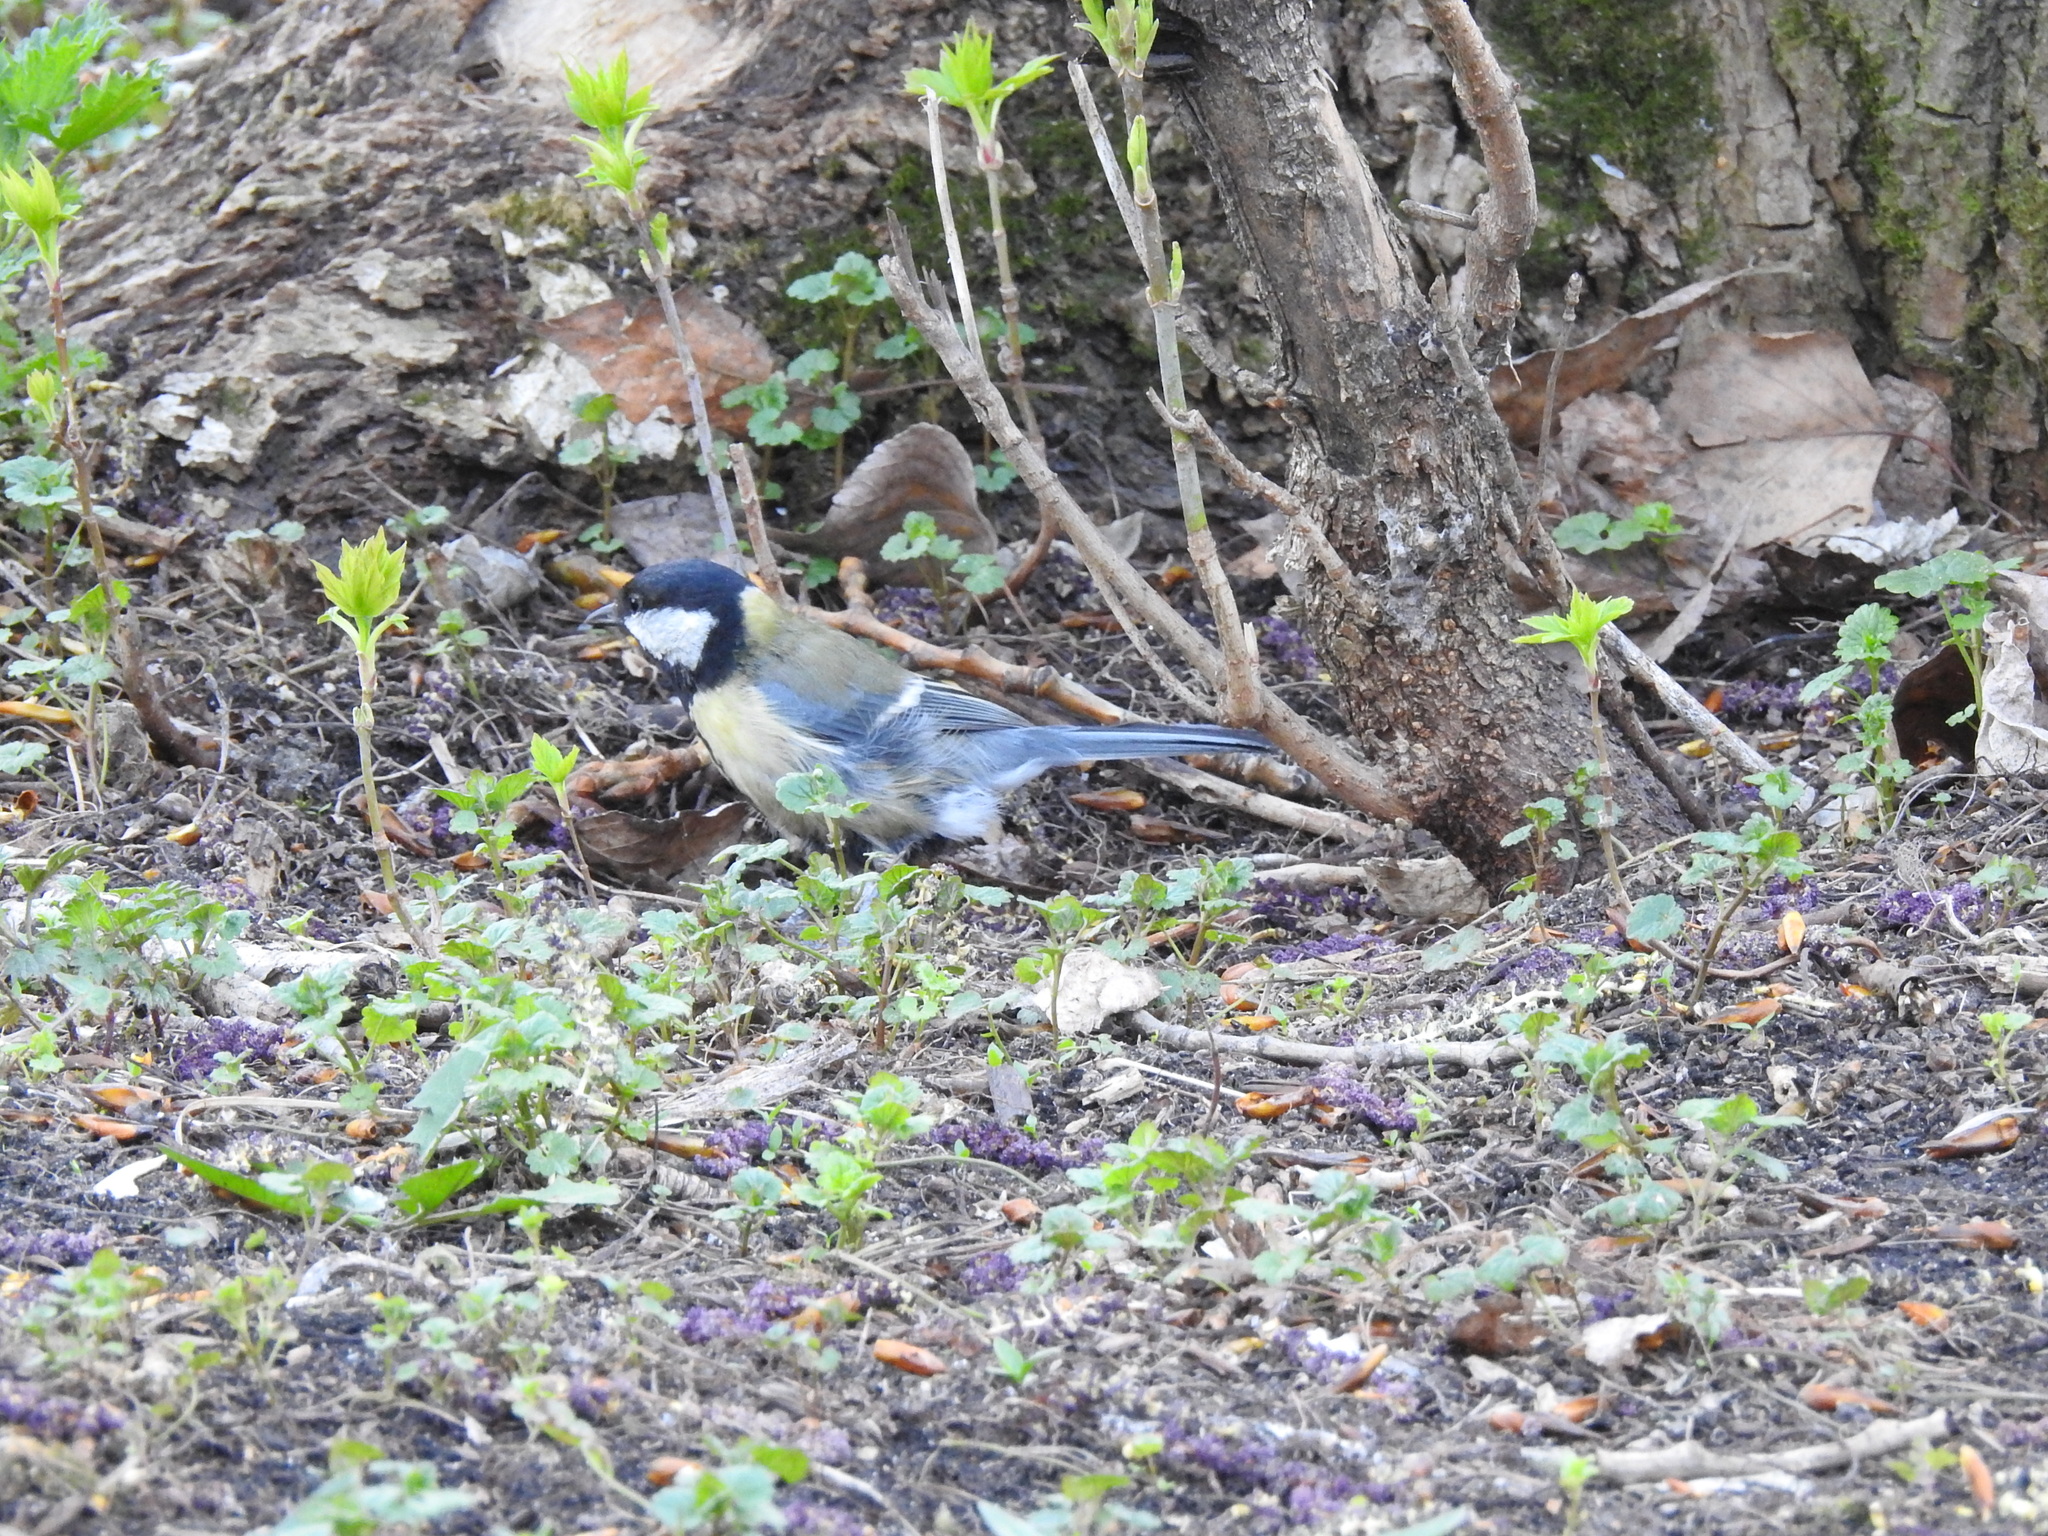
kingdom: Animalia
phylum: Chordata
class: Aves
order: Passeriformes
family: Paridae
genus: Parus
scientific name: Parus major
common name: Great tit
